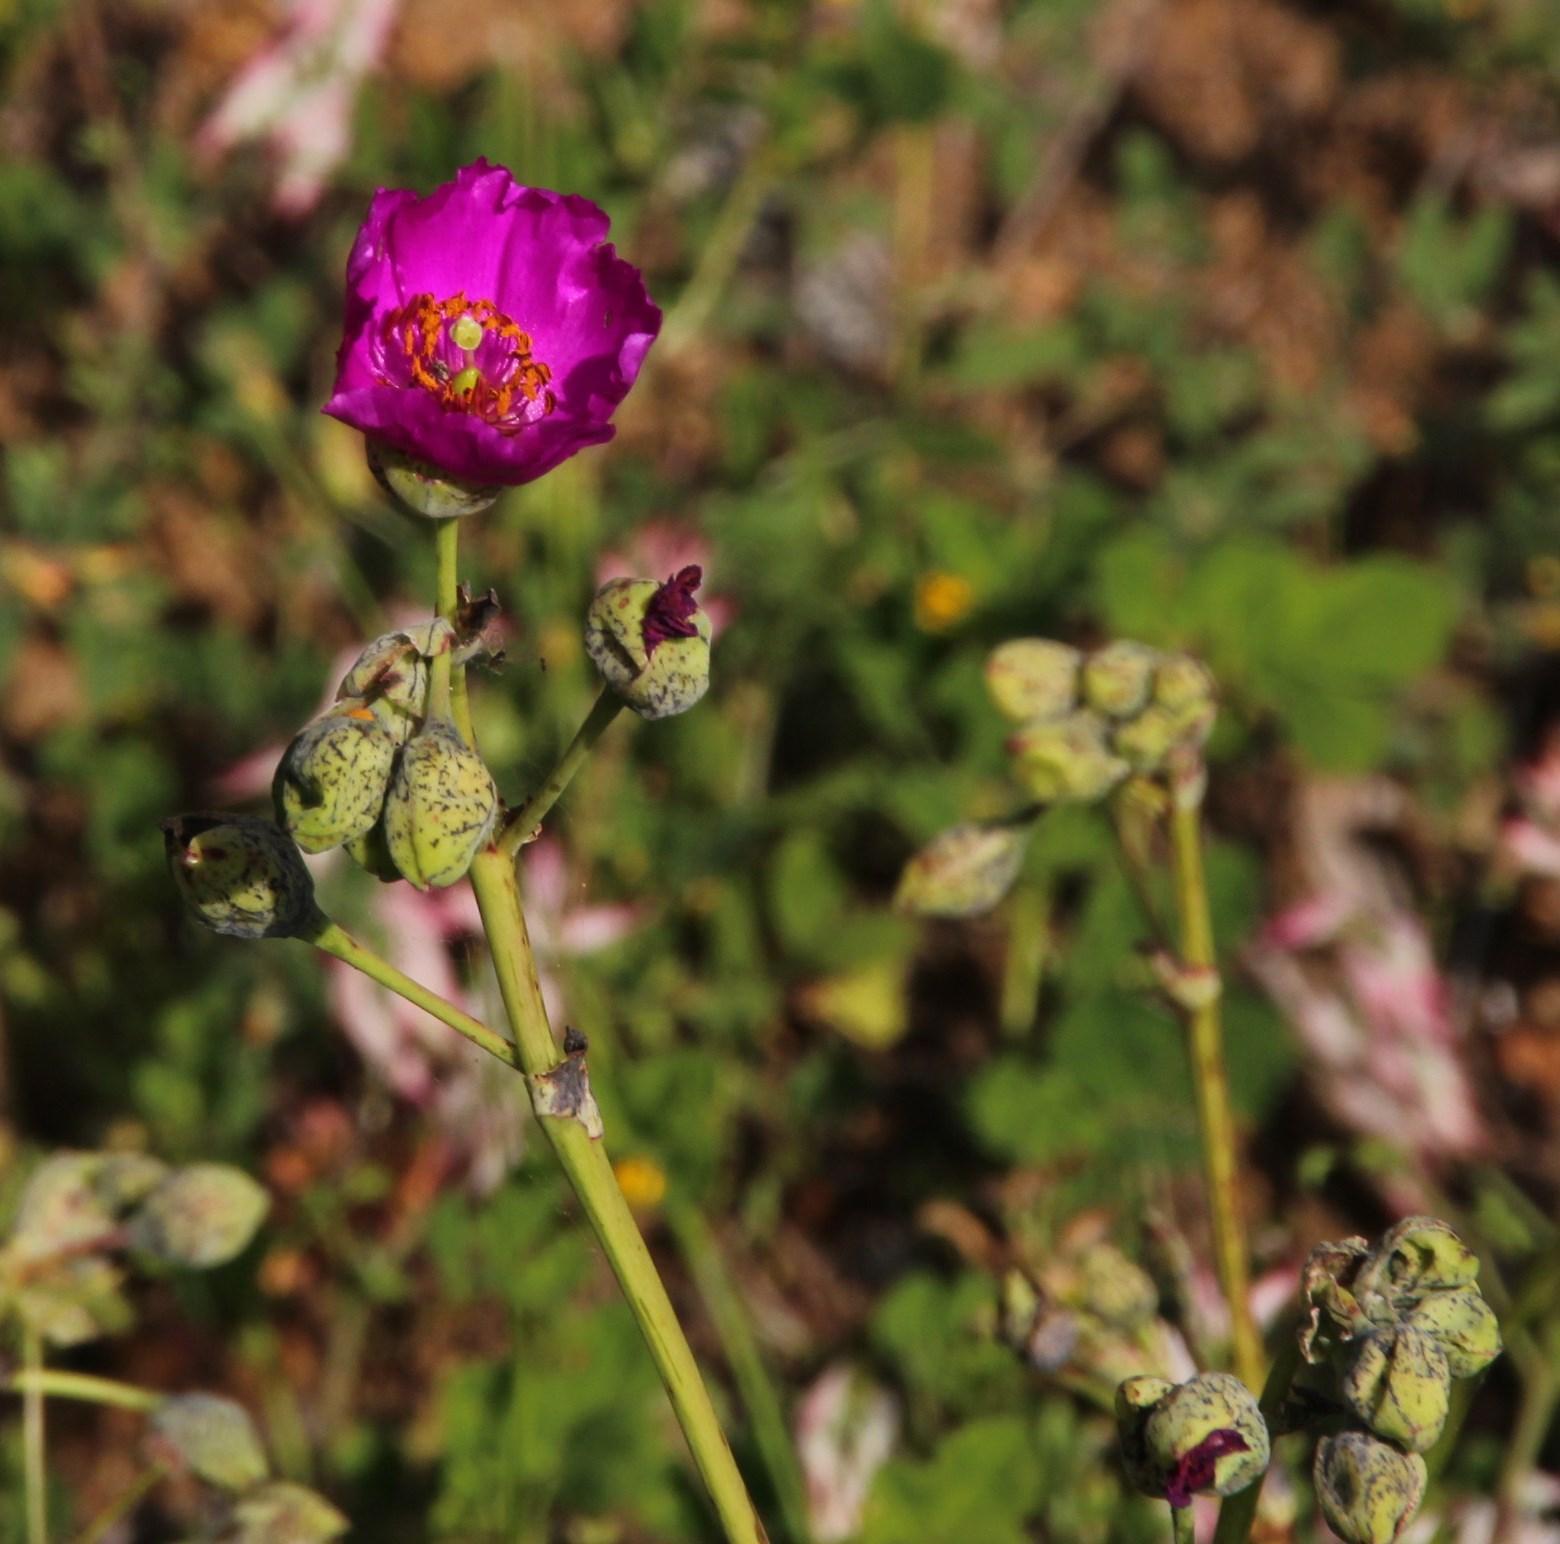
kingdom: Plantae
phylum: Tracheophyta
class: Magnoliopsida
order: Caryophyllales
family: Montiaceae
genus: Cistanthe
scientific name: Cistanthe grandiflora
